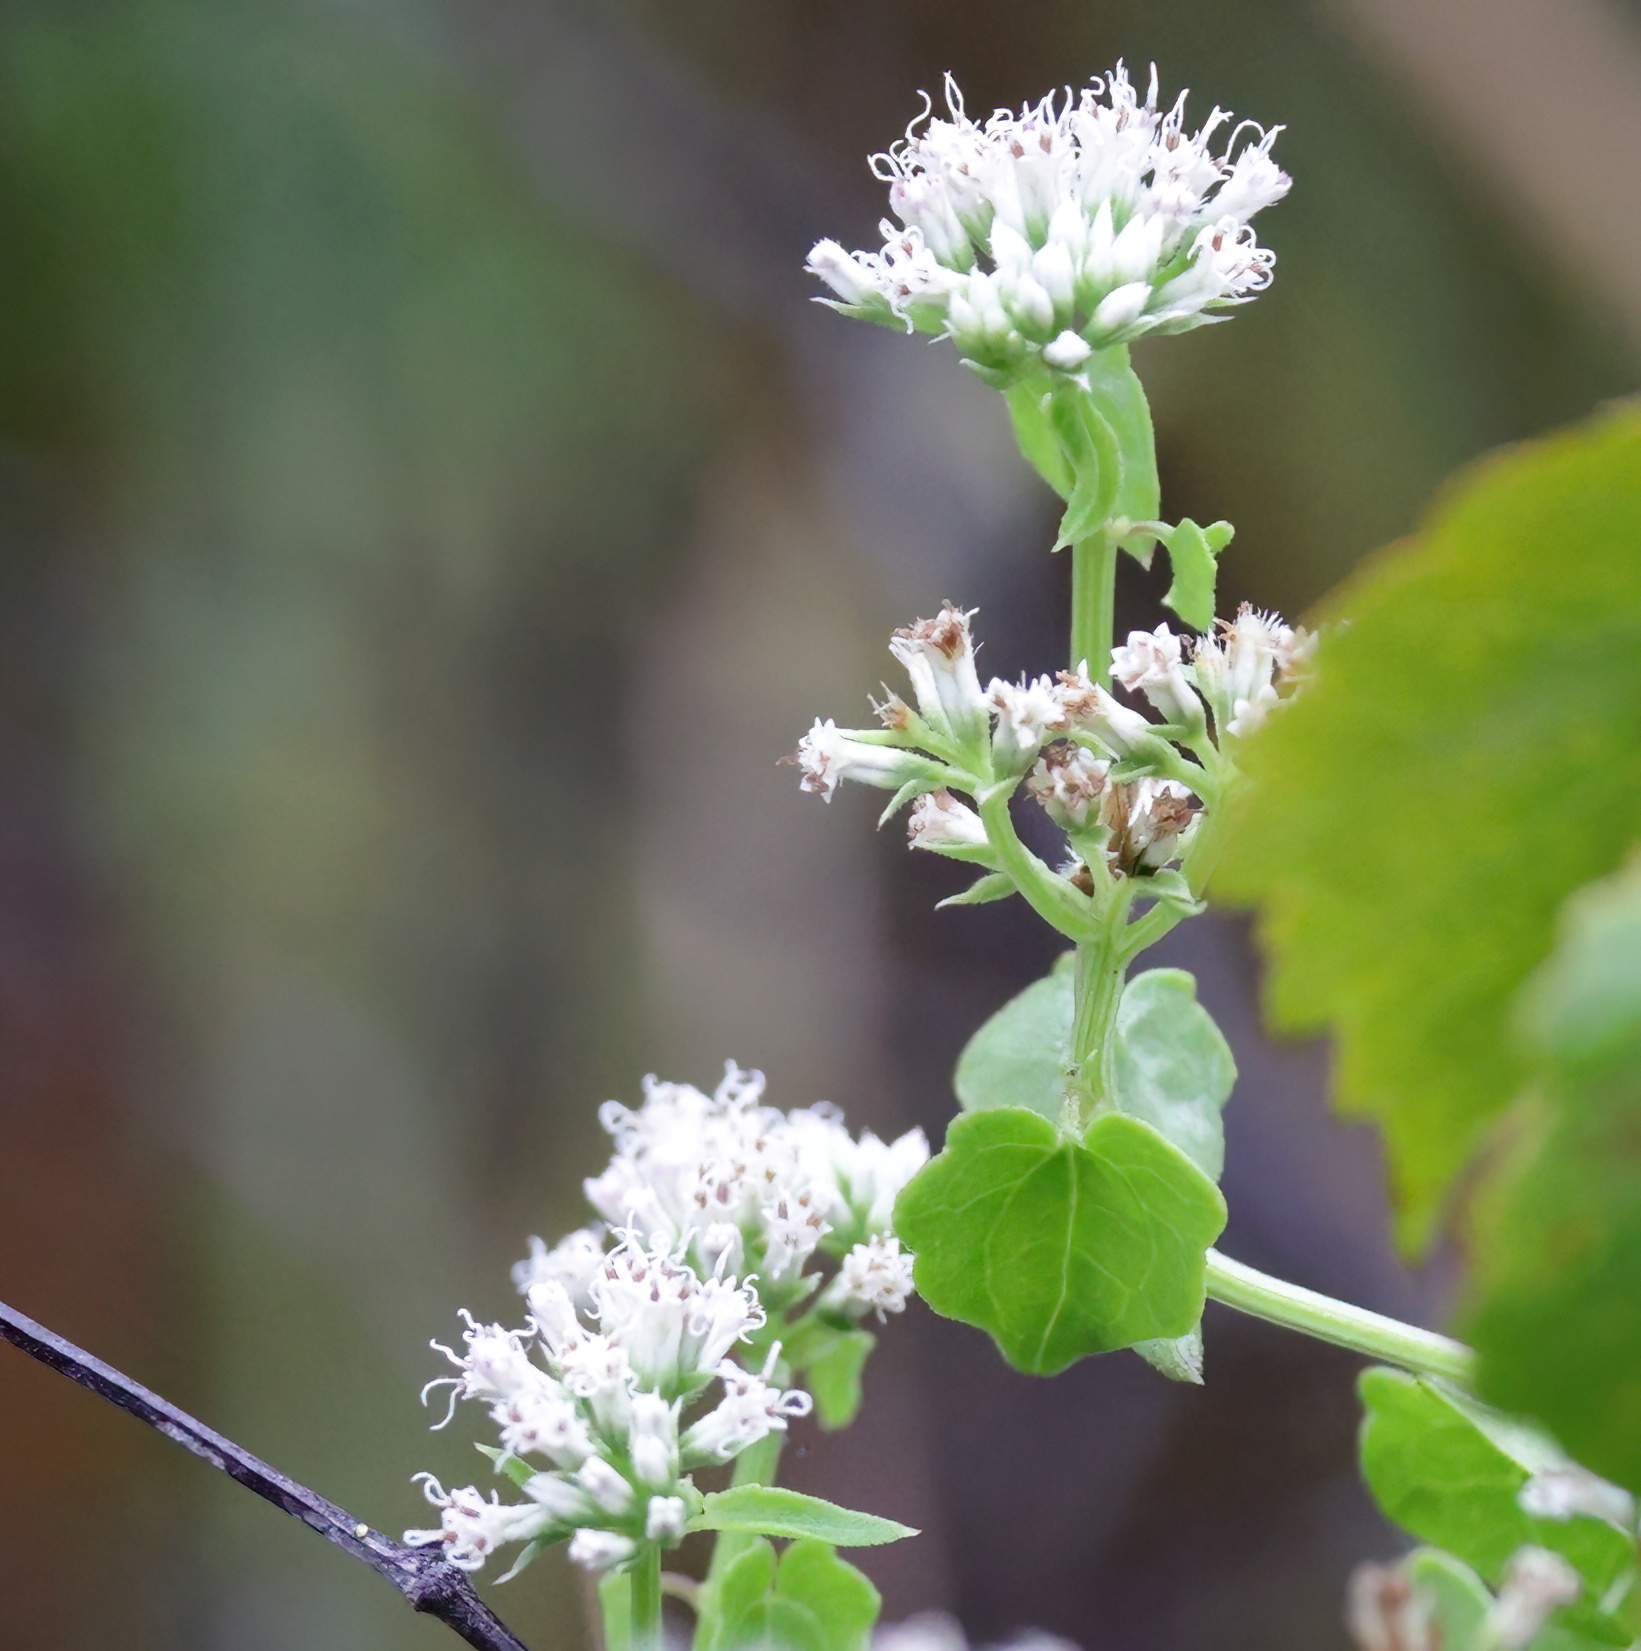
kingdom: Plantae
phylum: Tracheophyta
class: Magnoliopsida
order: Asterales
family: Asteraceae
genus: Mikania
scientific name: Mikania scandens
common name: Climbing hempvine
